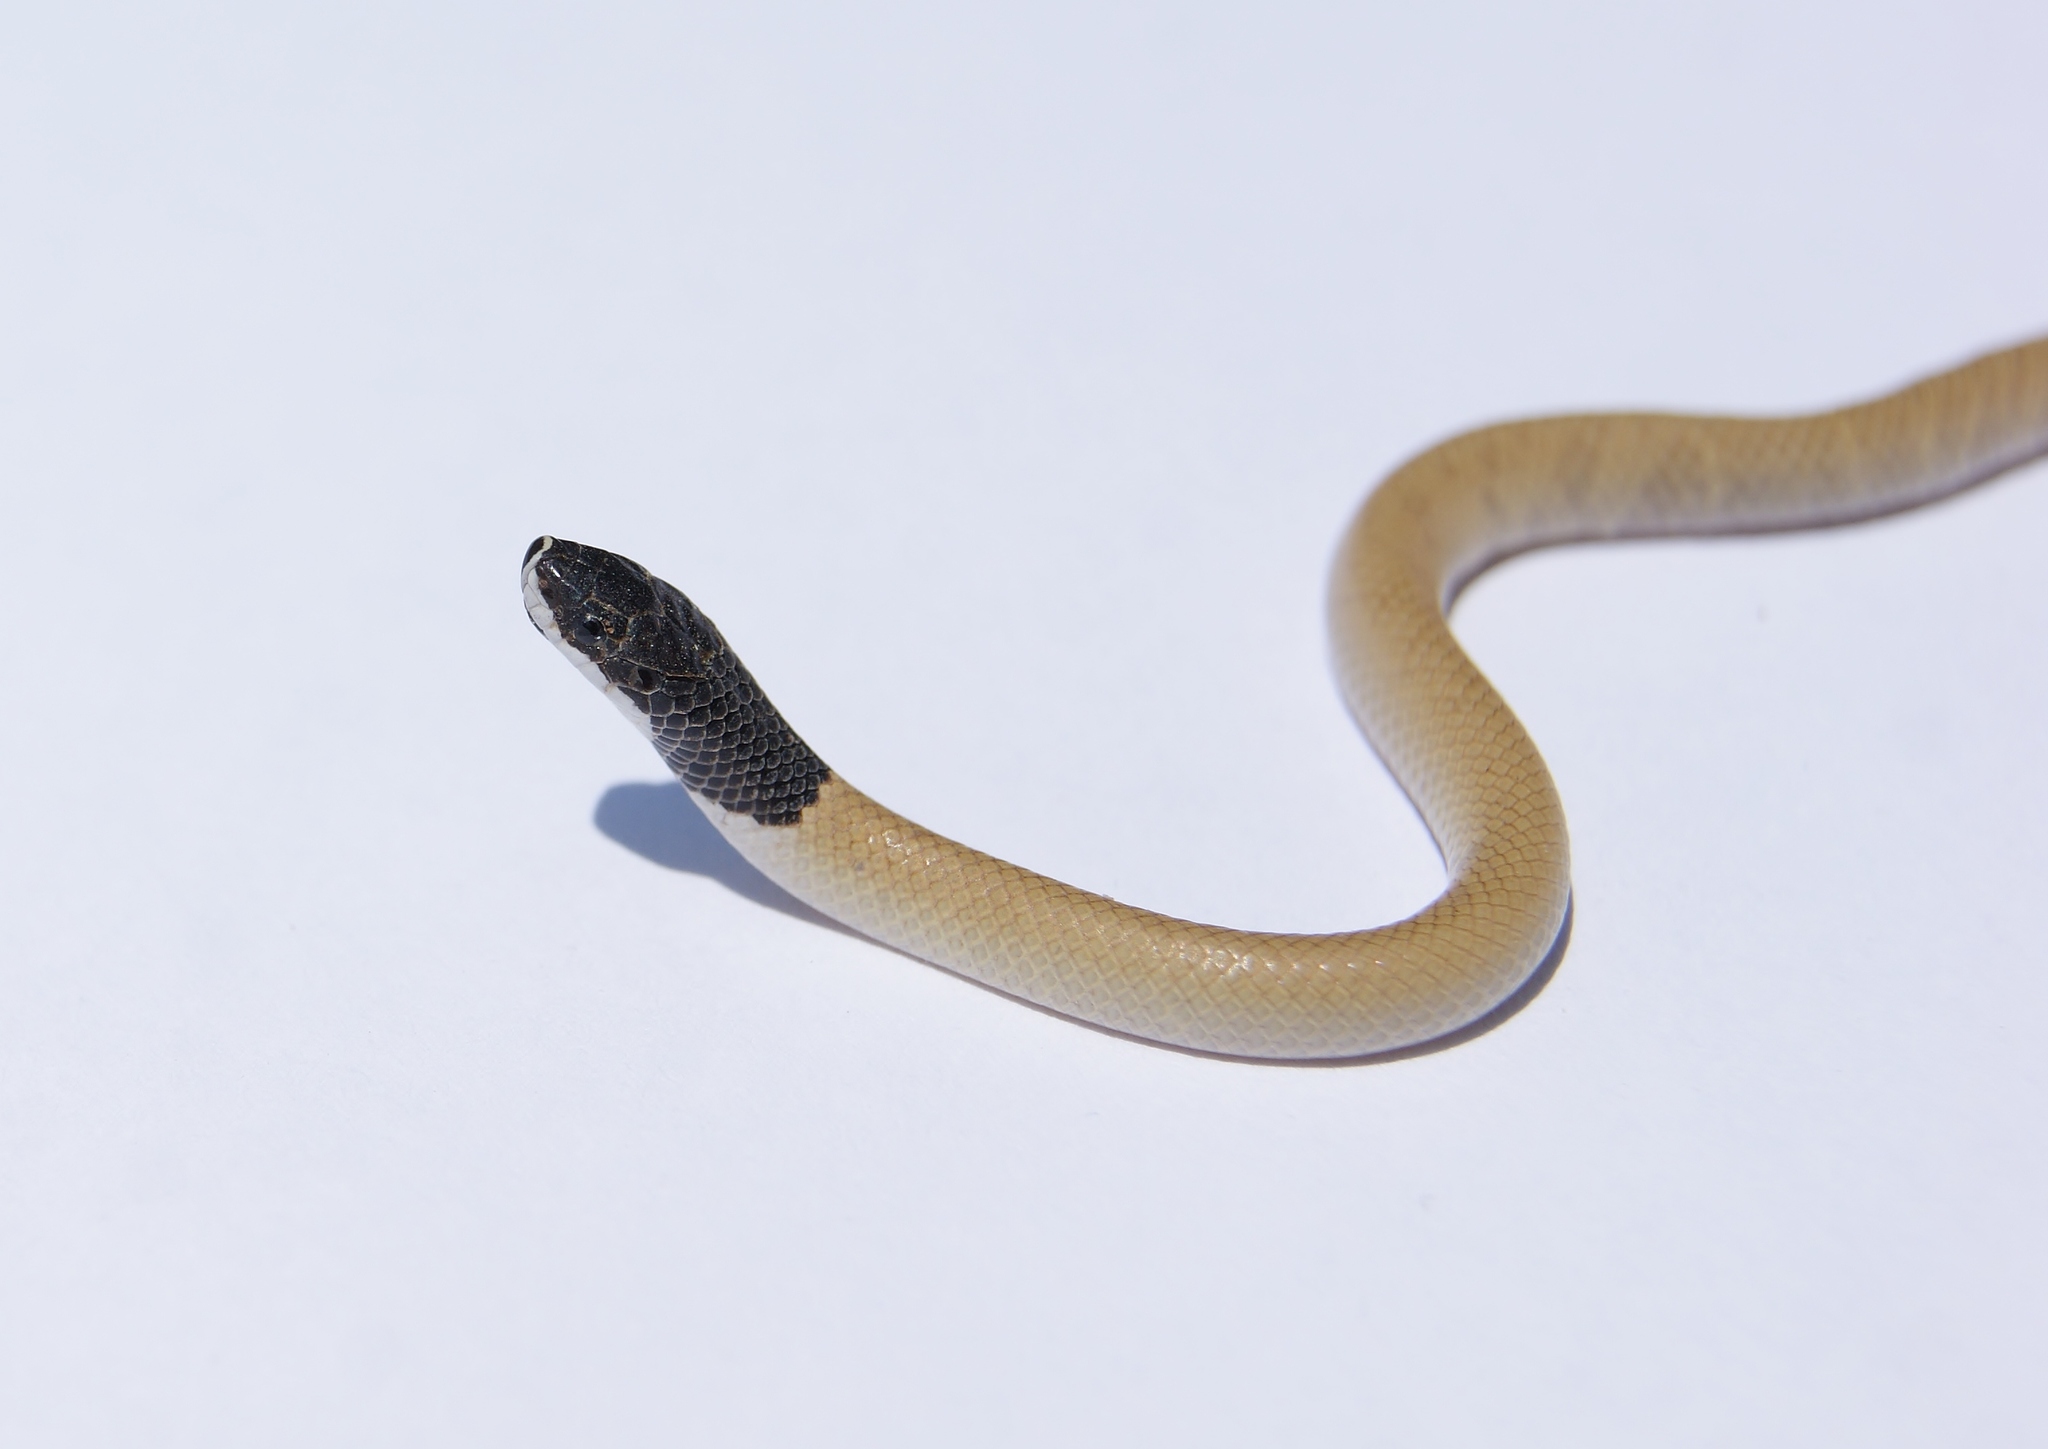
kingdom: Animalia
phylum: Chordata
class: Squamata
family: Colubridae
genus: Rhynchocalamus
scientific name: Rhynchocalamus melanocephalus
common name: Black-headed rhynchocalamus
